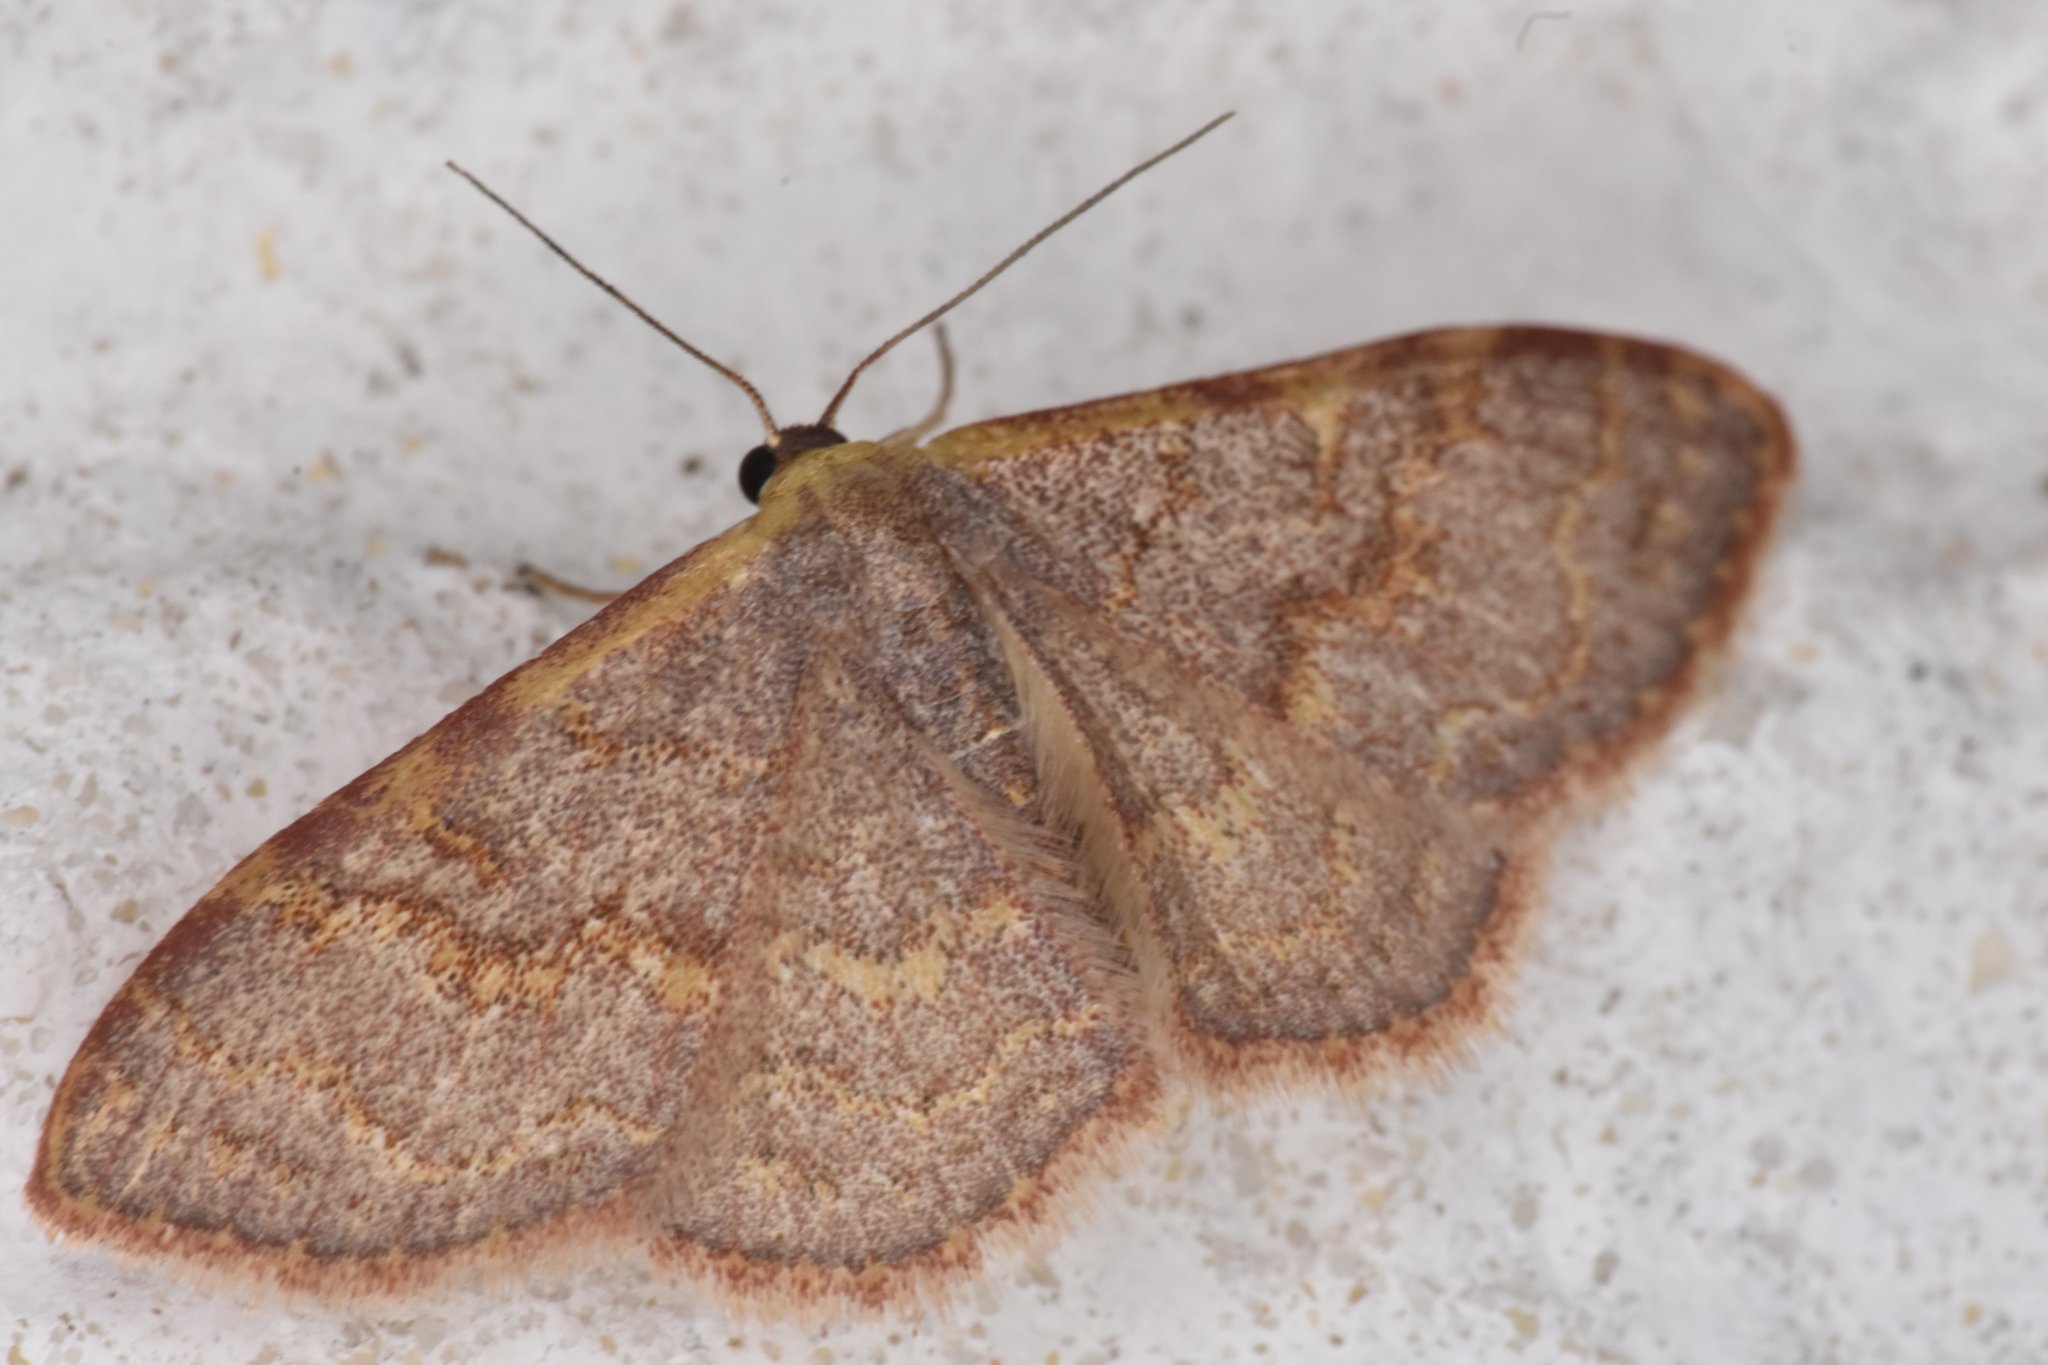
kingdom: Animalia
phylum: Arthropoda
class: Insecta
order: Lepidoptera
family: Geometridae
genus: Leptostales
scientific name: Leptostales pannaria
